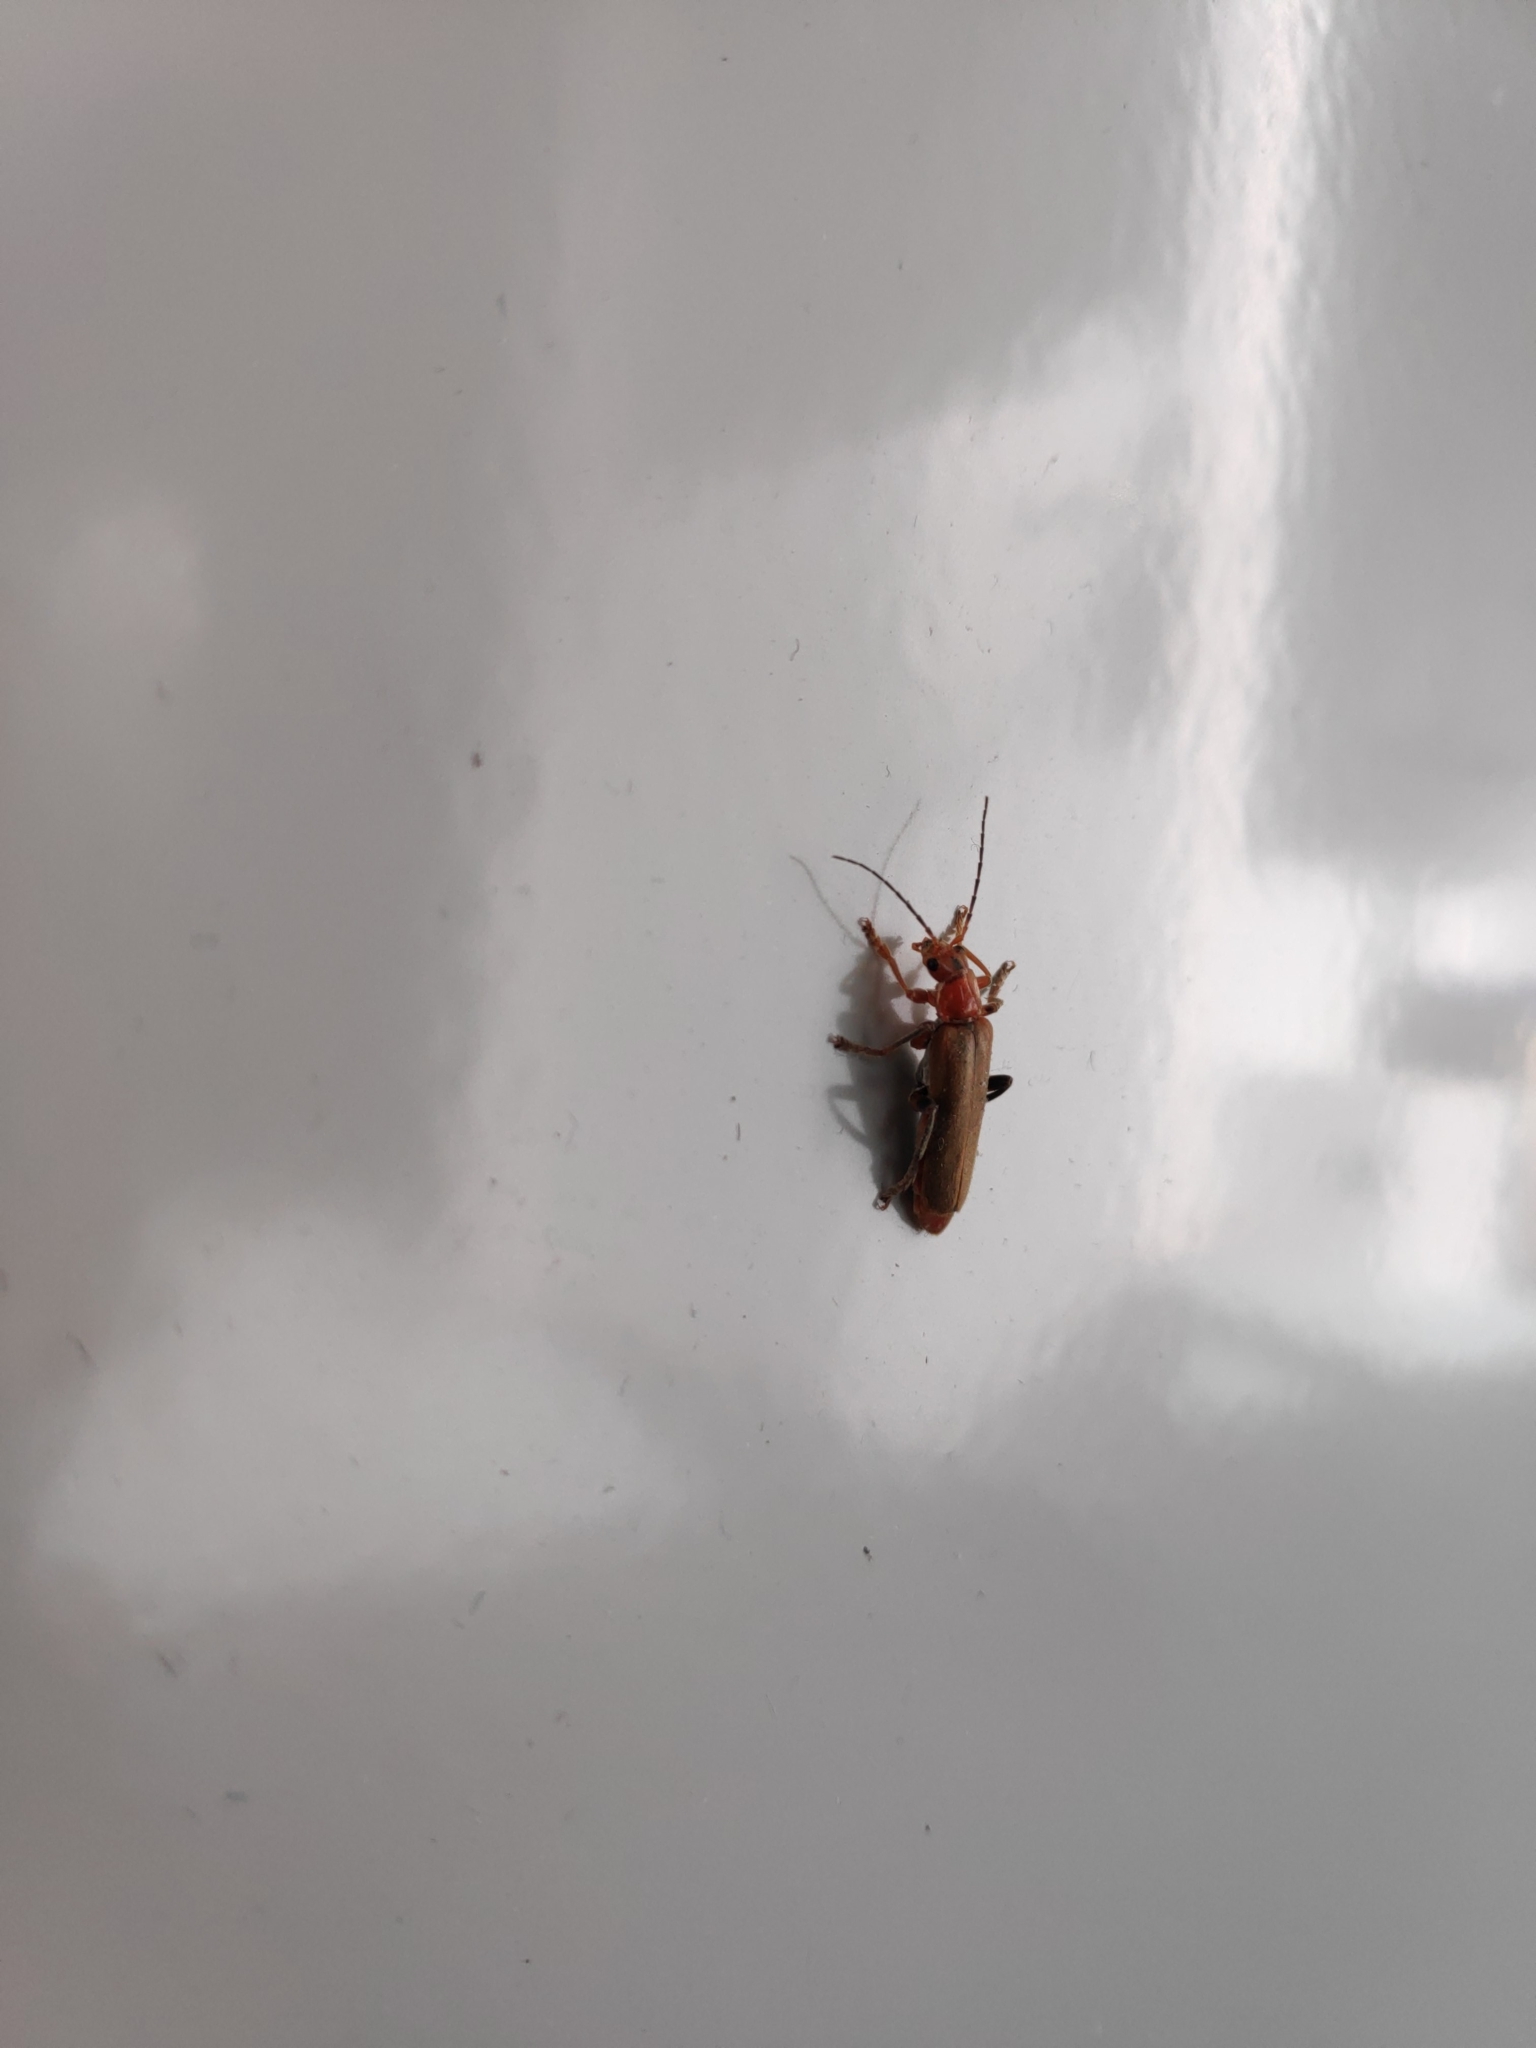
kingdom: Animalia
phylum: Arthropoda
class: Insecta
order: Coleoptera
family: Cantharidae
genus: Cantharis
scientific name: Cantharis livida
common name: Livid soldier beetle
